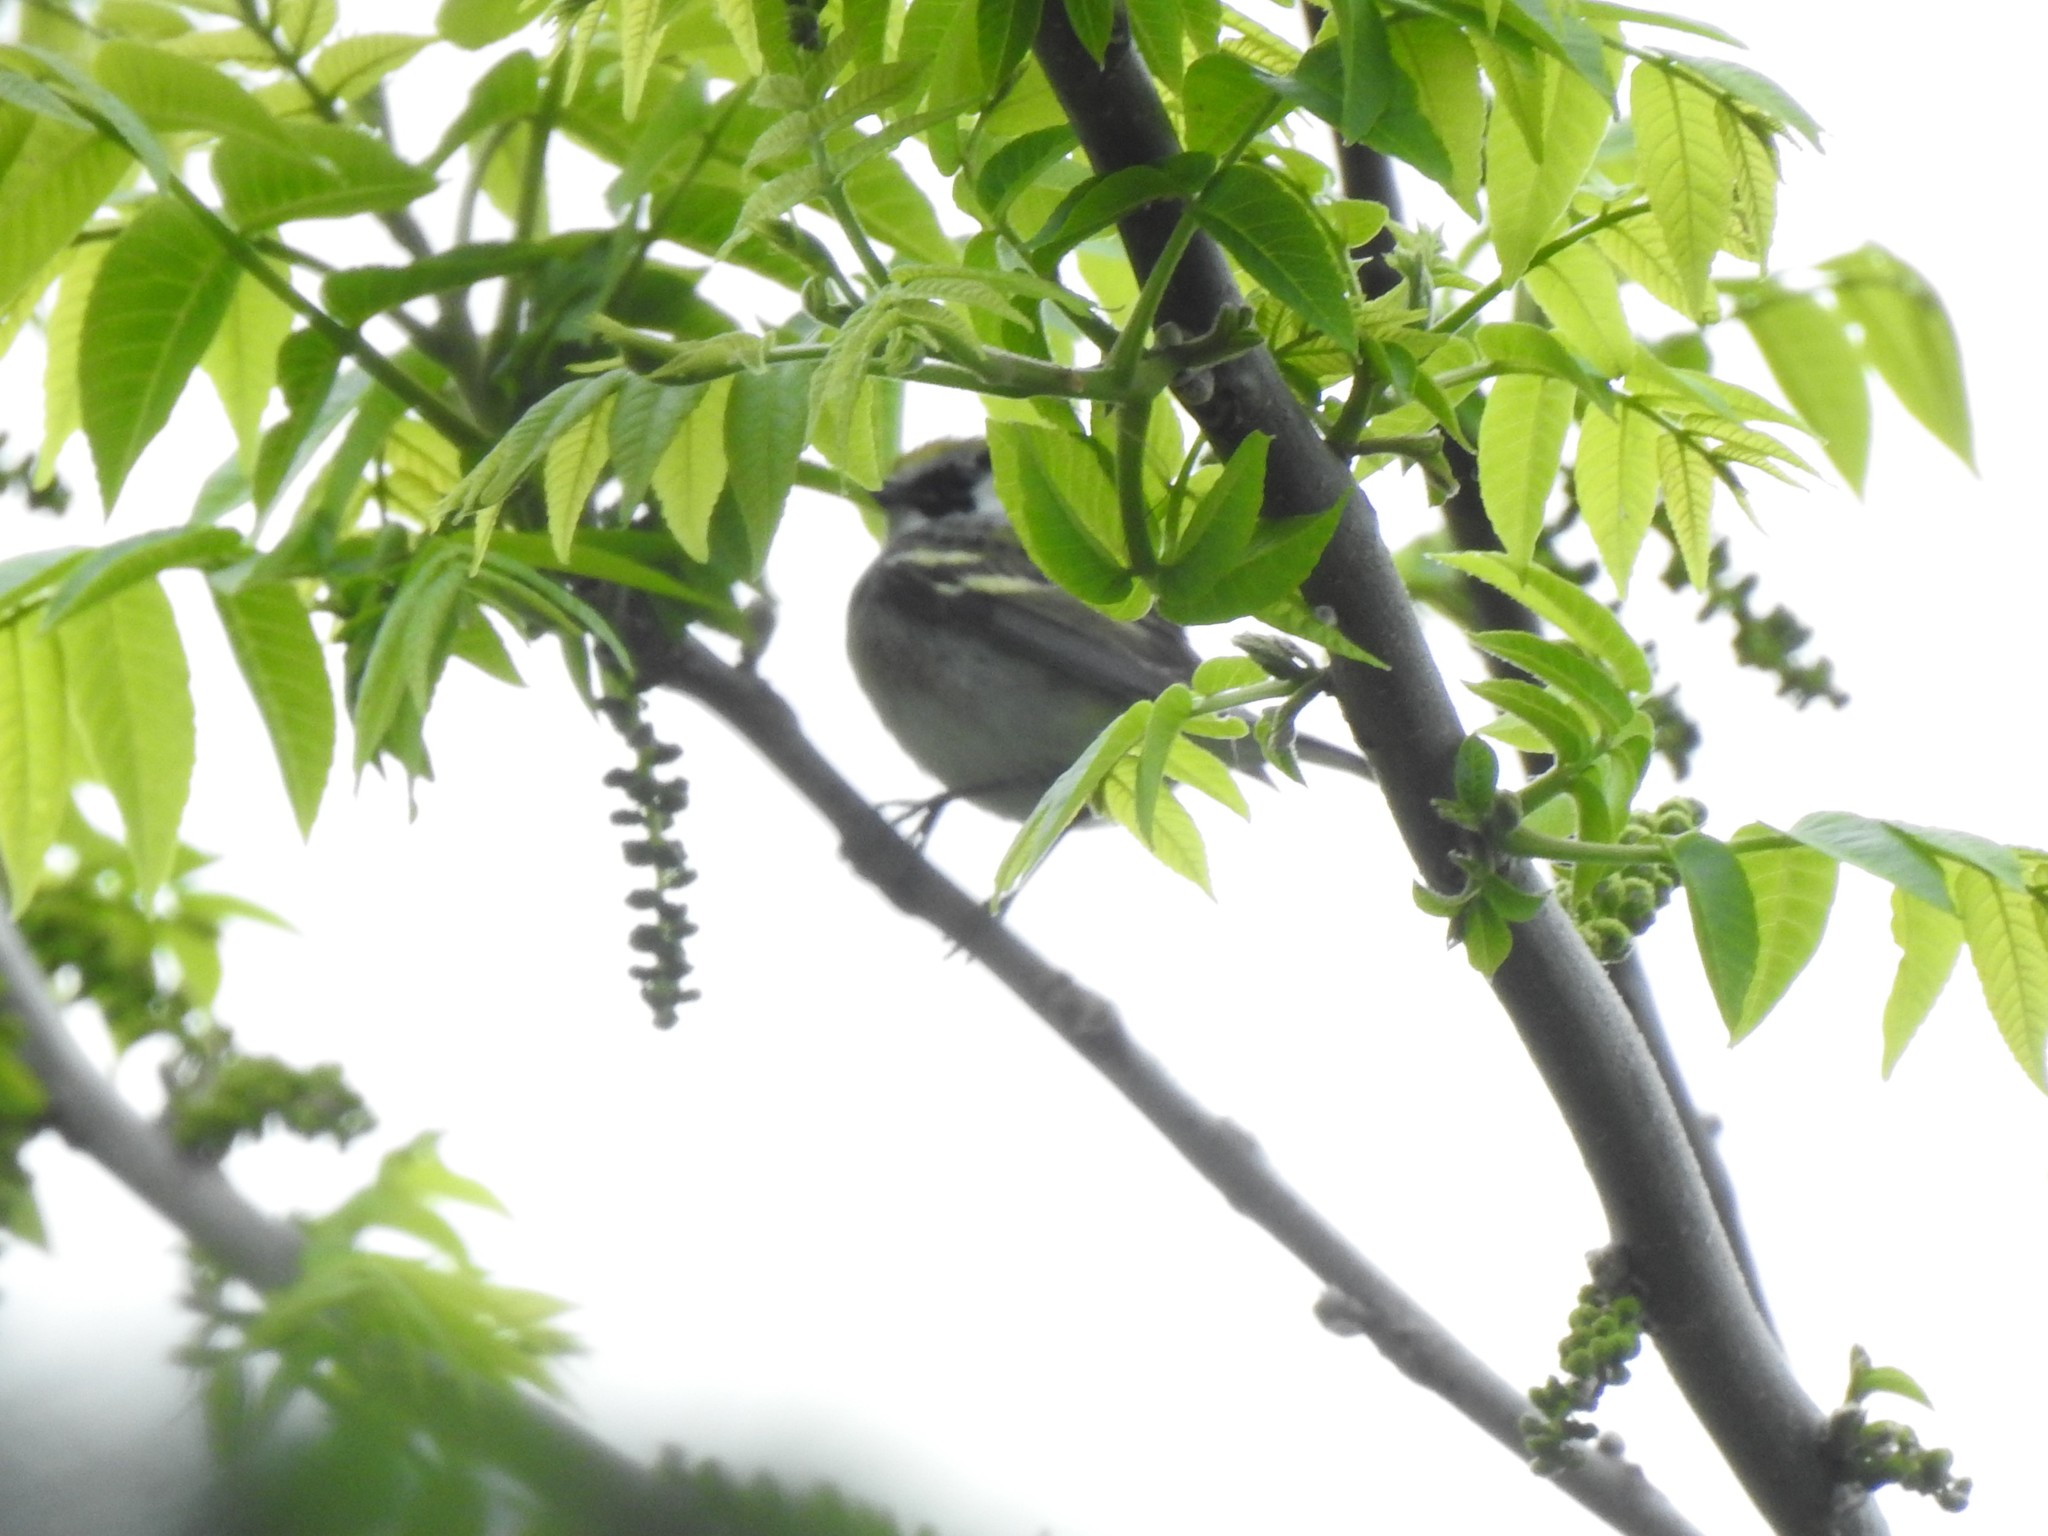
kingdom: Animalia
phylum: Chordata
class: Aves
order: Passeriformes
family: Parulidae
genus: Setophaga
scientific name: Setophaga pensylvanica
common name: Chestnut-sided warbler
